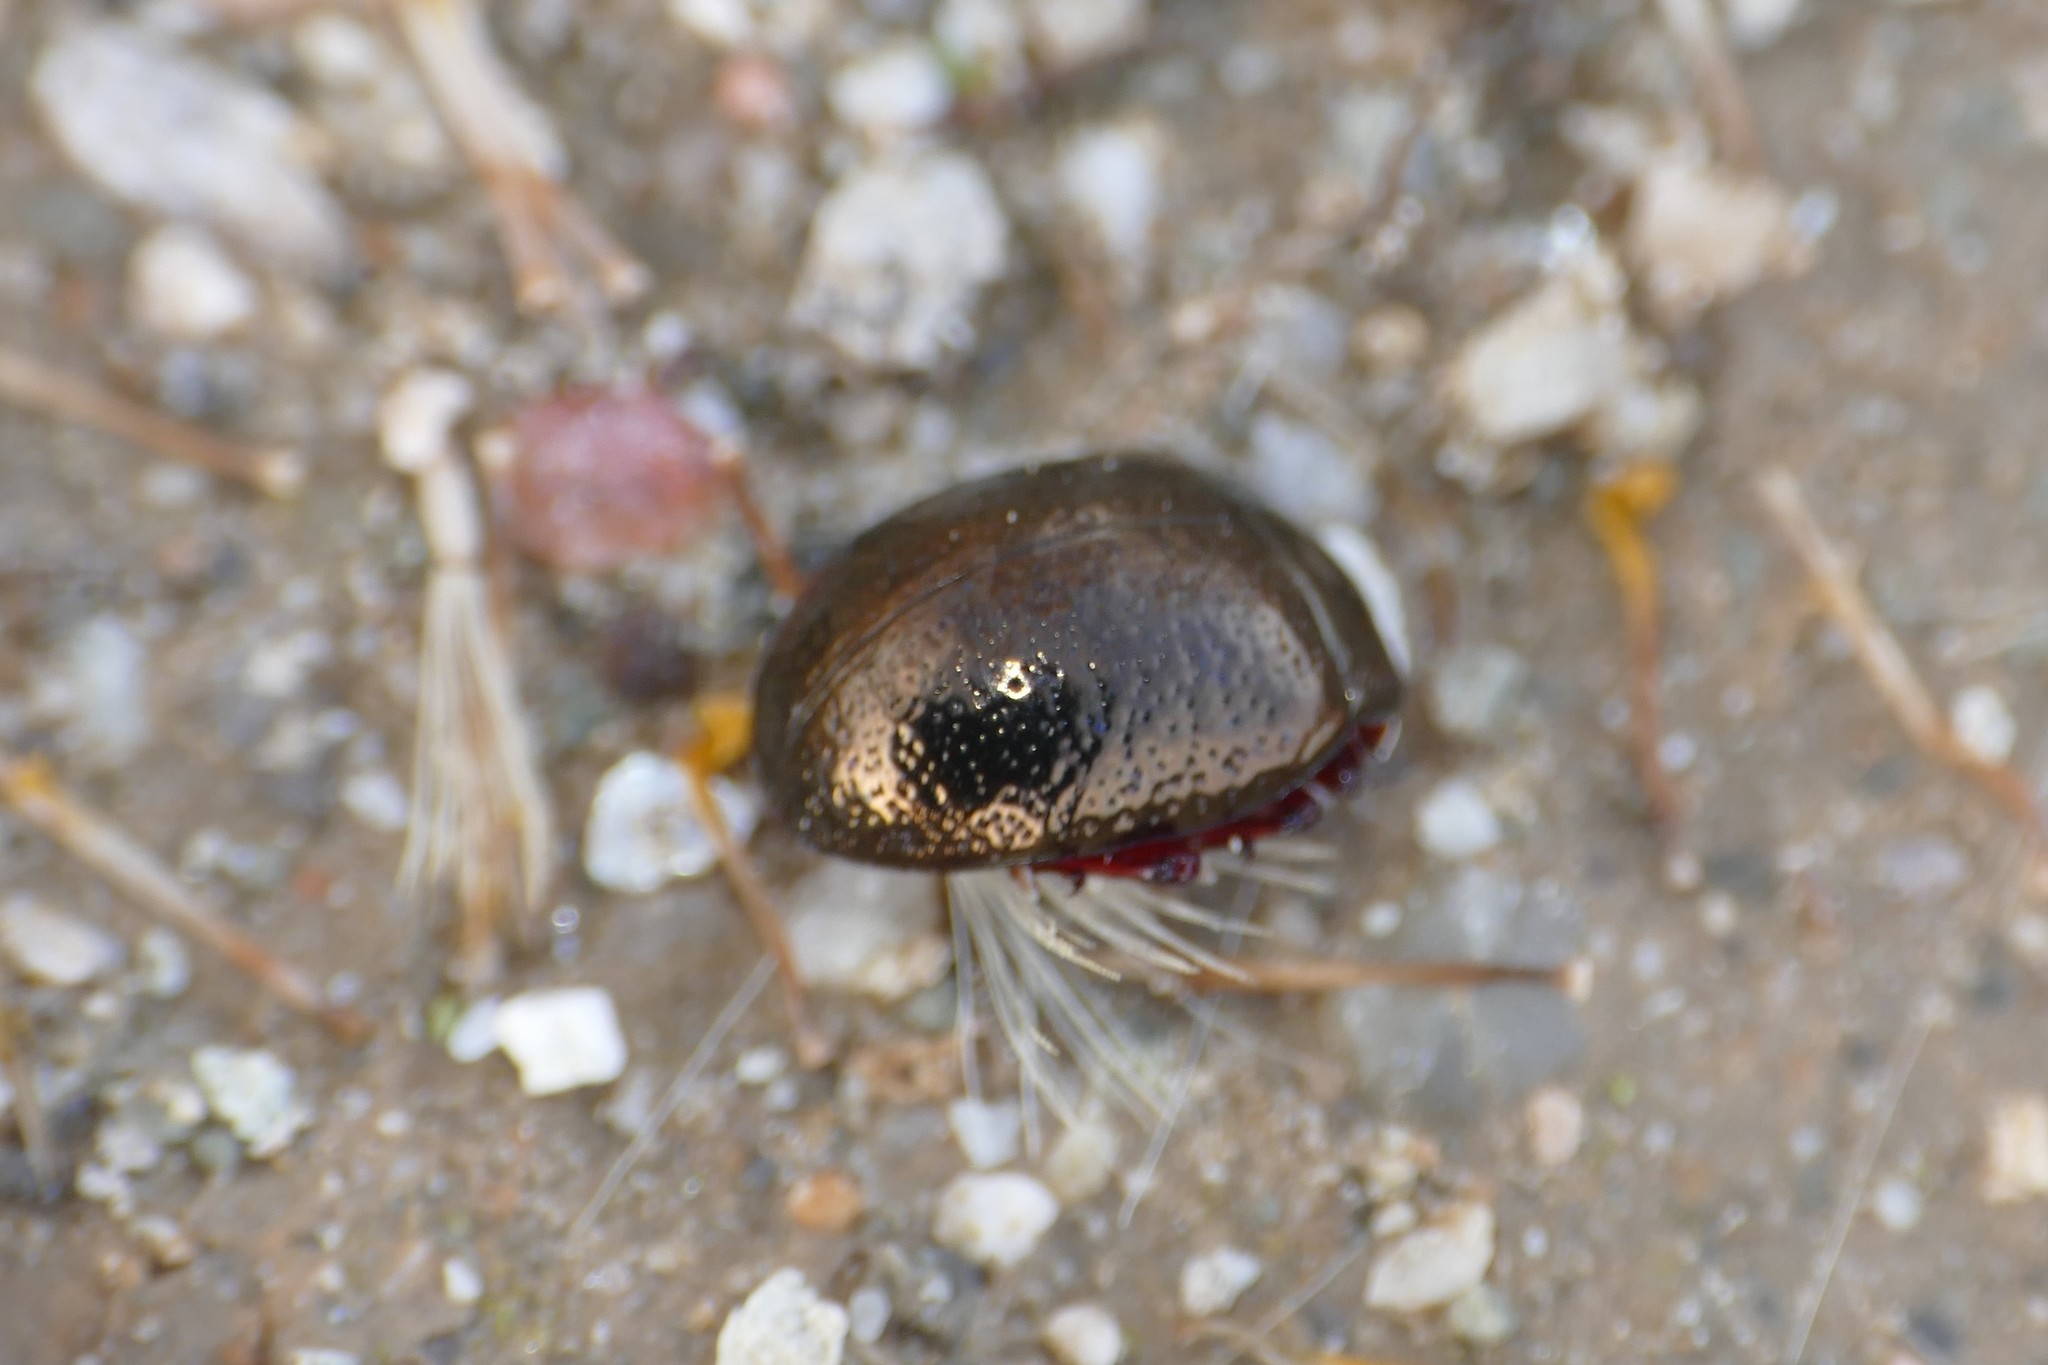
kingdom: Animalia
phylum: Arthropoda
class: Insecta
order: Coleoptera
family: Chrysomelidae
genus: Chrysolina
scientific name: Chrysolina bankii
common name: Leaf beetle
